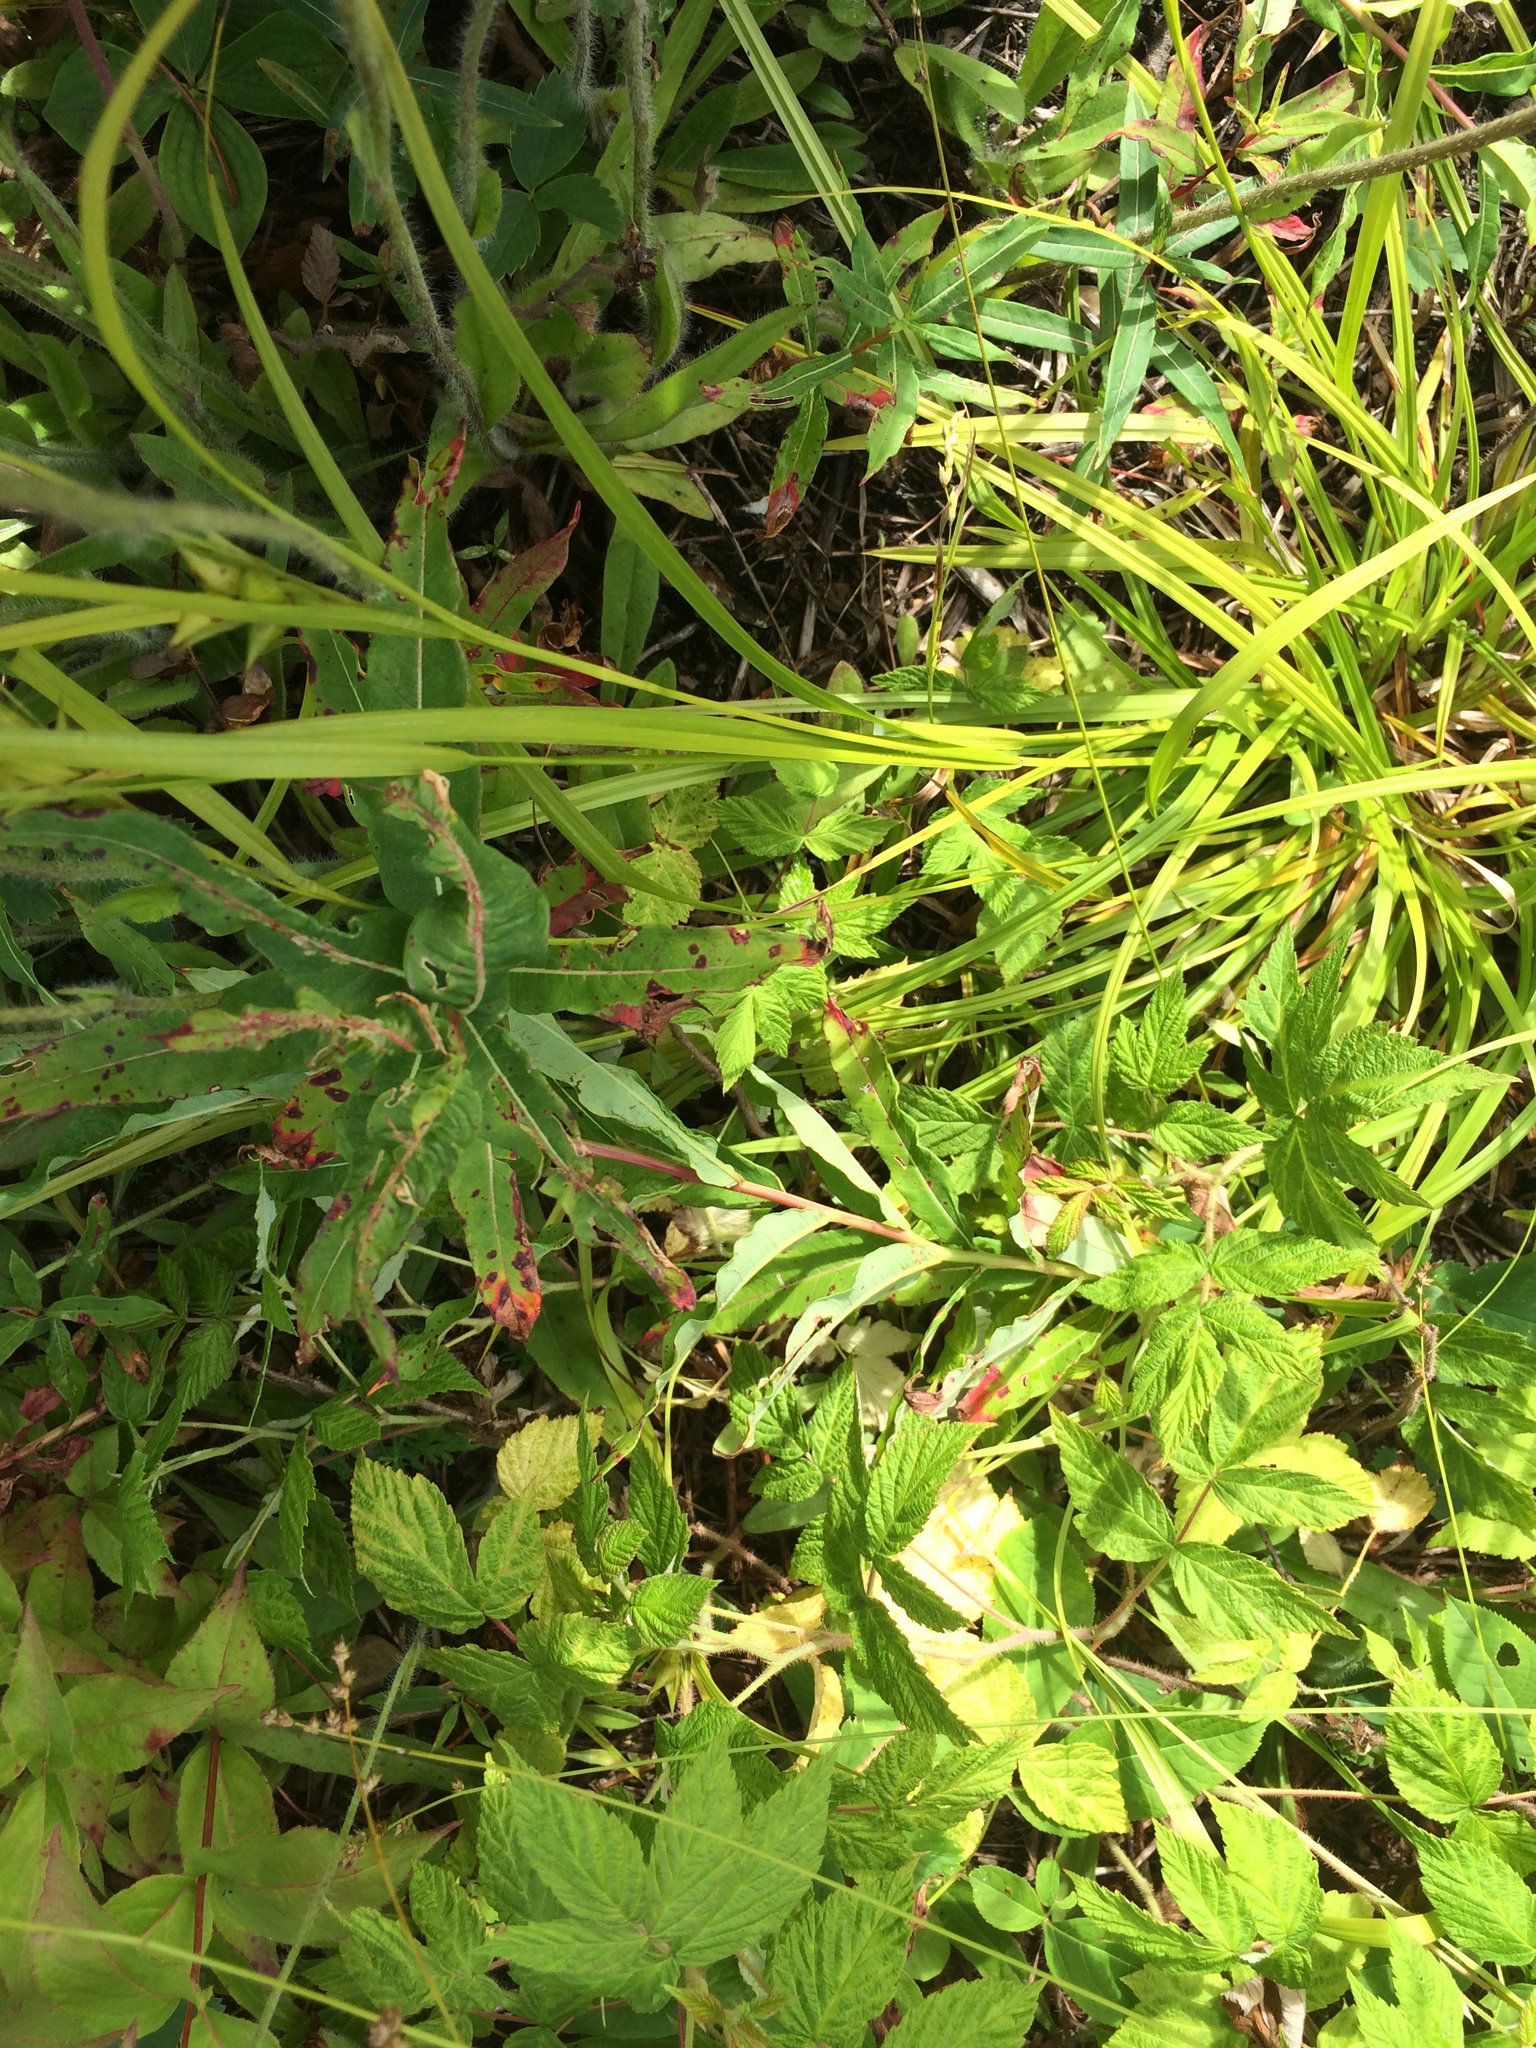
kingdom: Plantae
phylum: Tracheophyta
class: Liliopsida
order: Poales
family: Cyperaceae
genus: Carex
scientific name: Carex intumescens
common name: Greater bladder sedge
